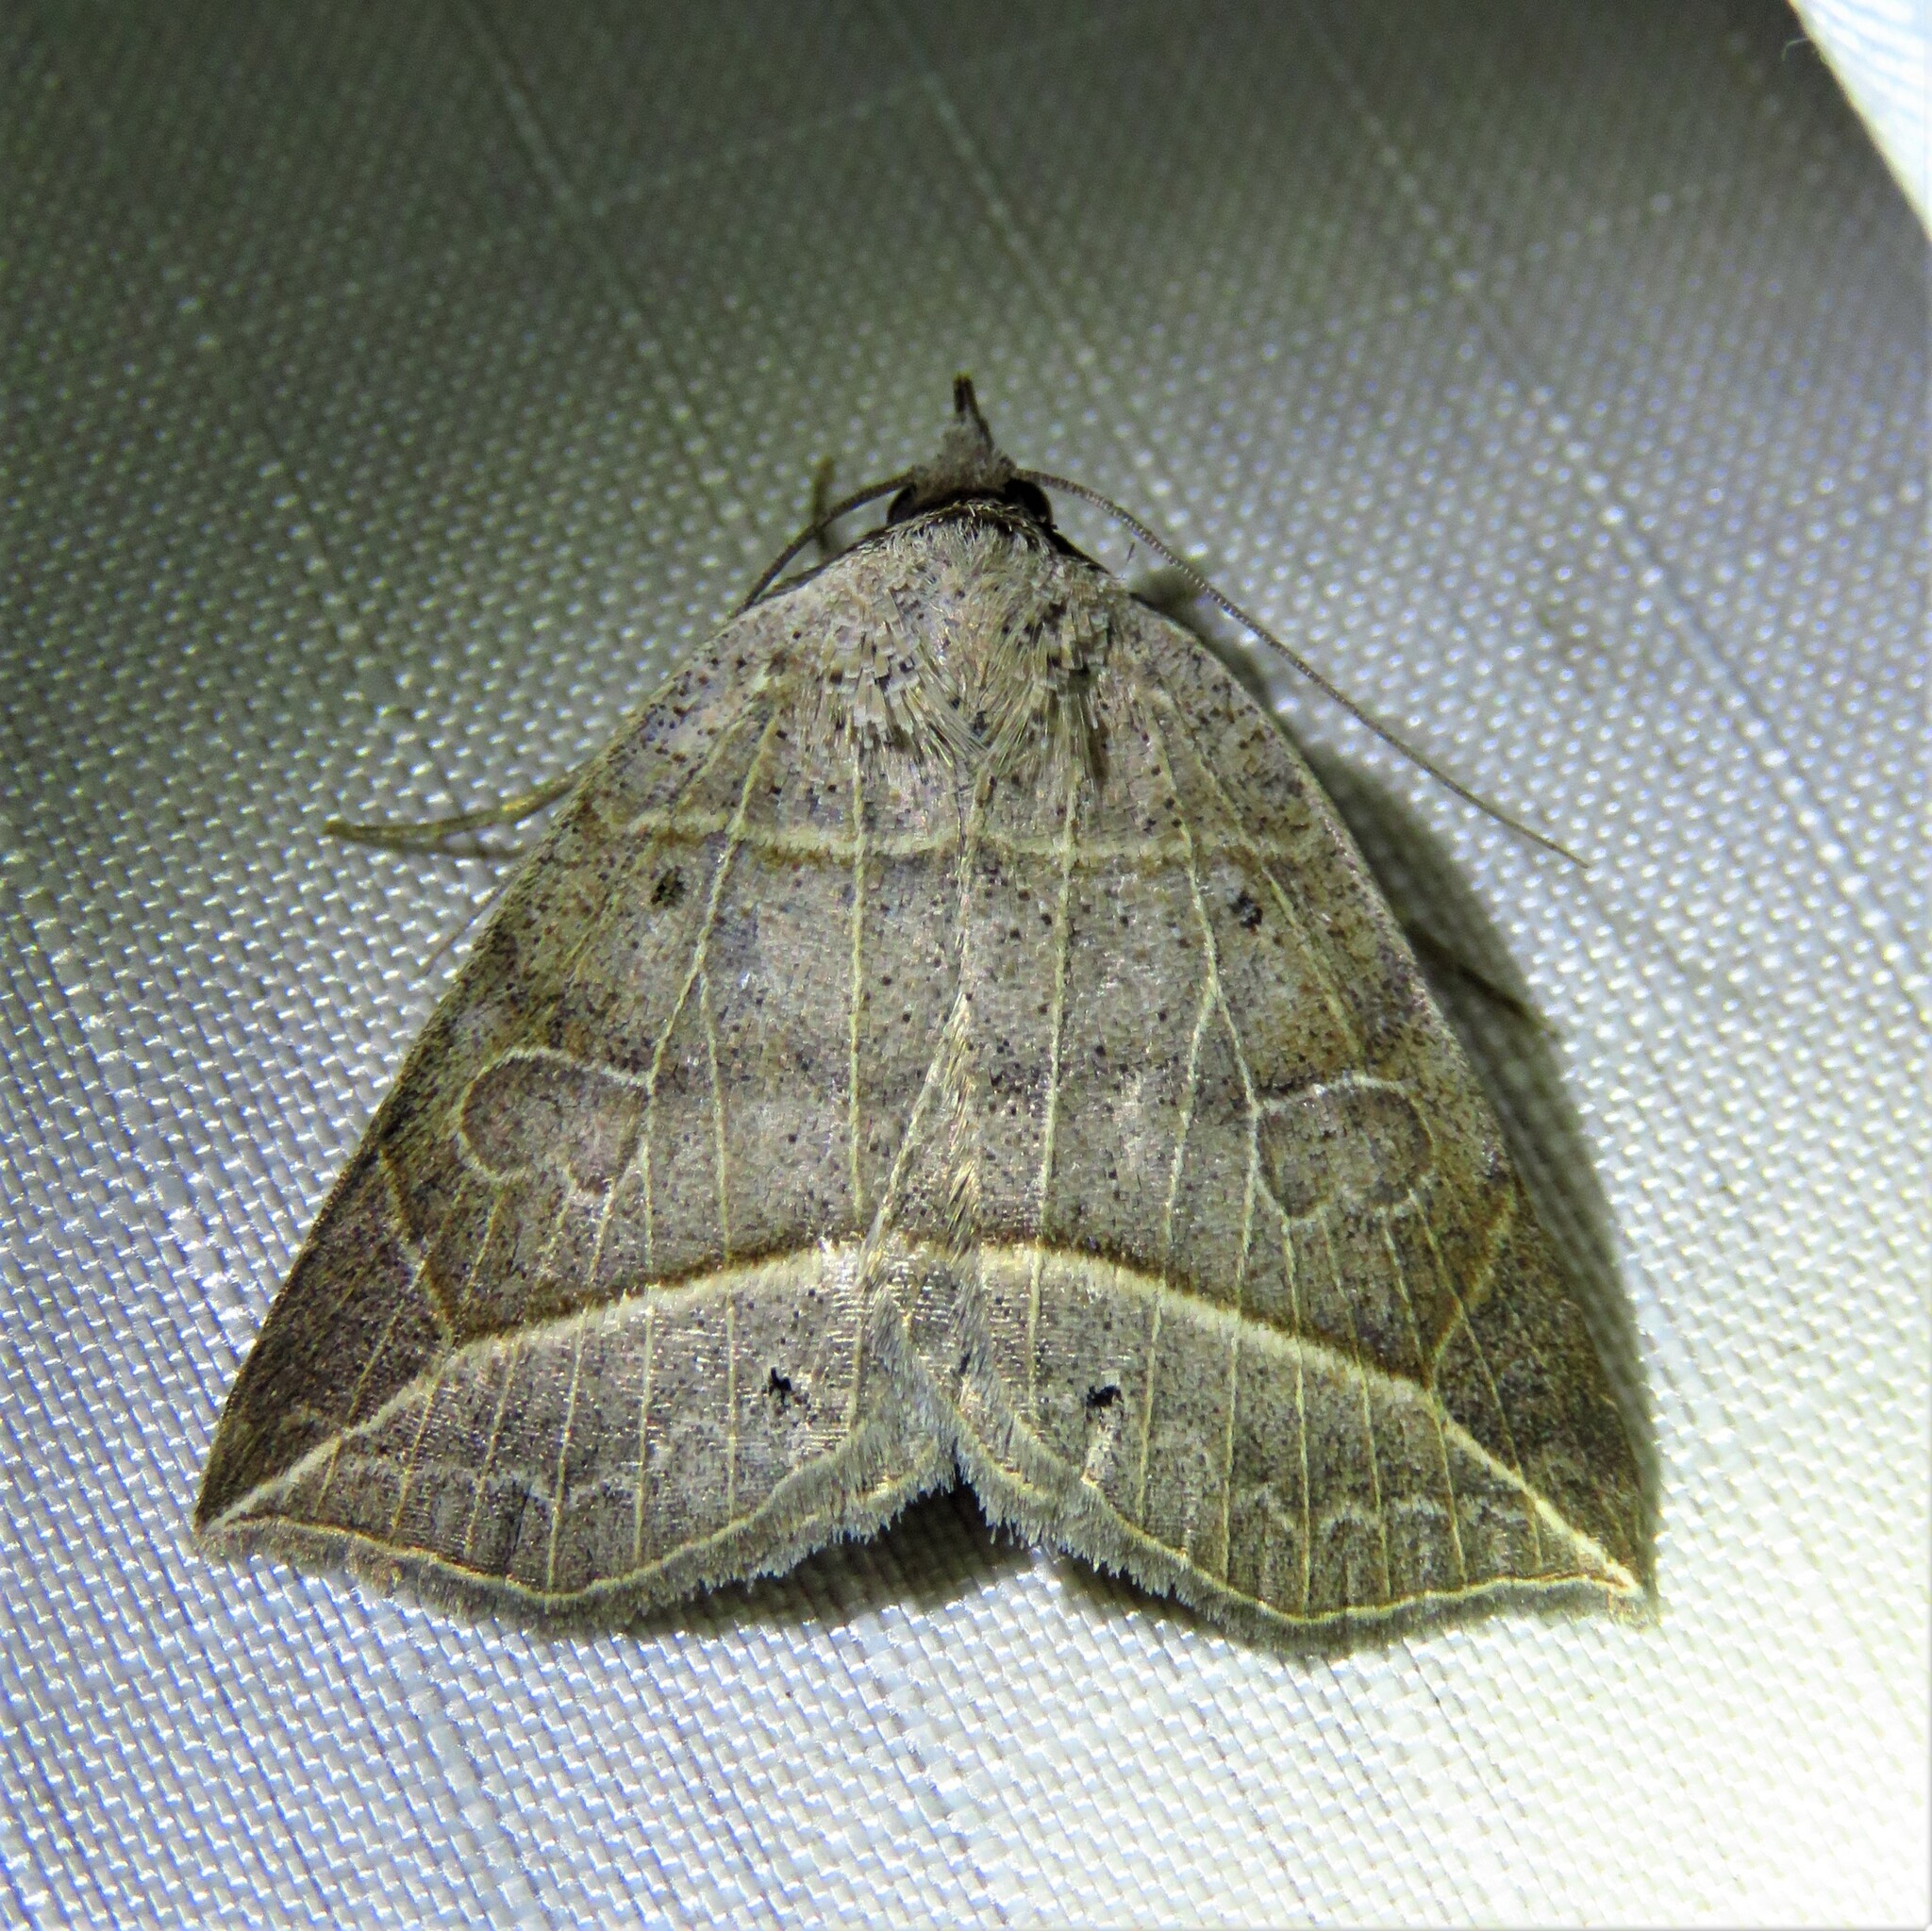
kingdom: Animalia
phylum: Arthropoda
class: Insecta
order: Lepidoptera
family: Erebidae
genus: Isogona
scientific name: Isogona tenuis
